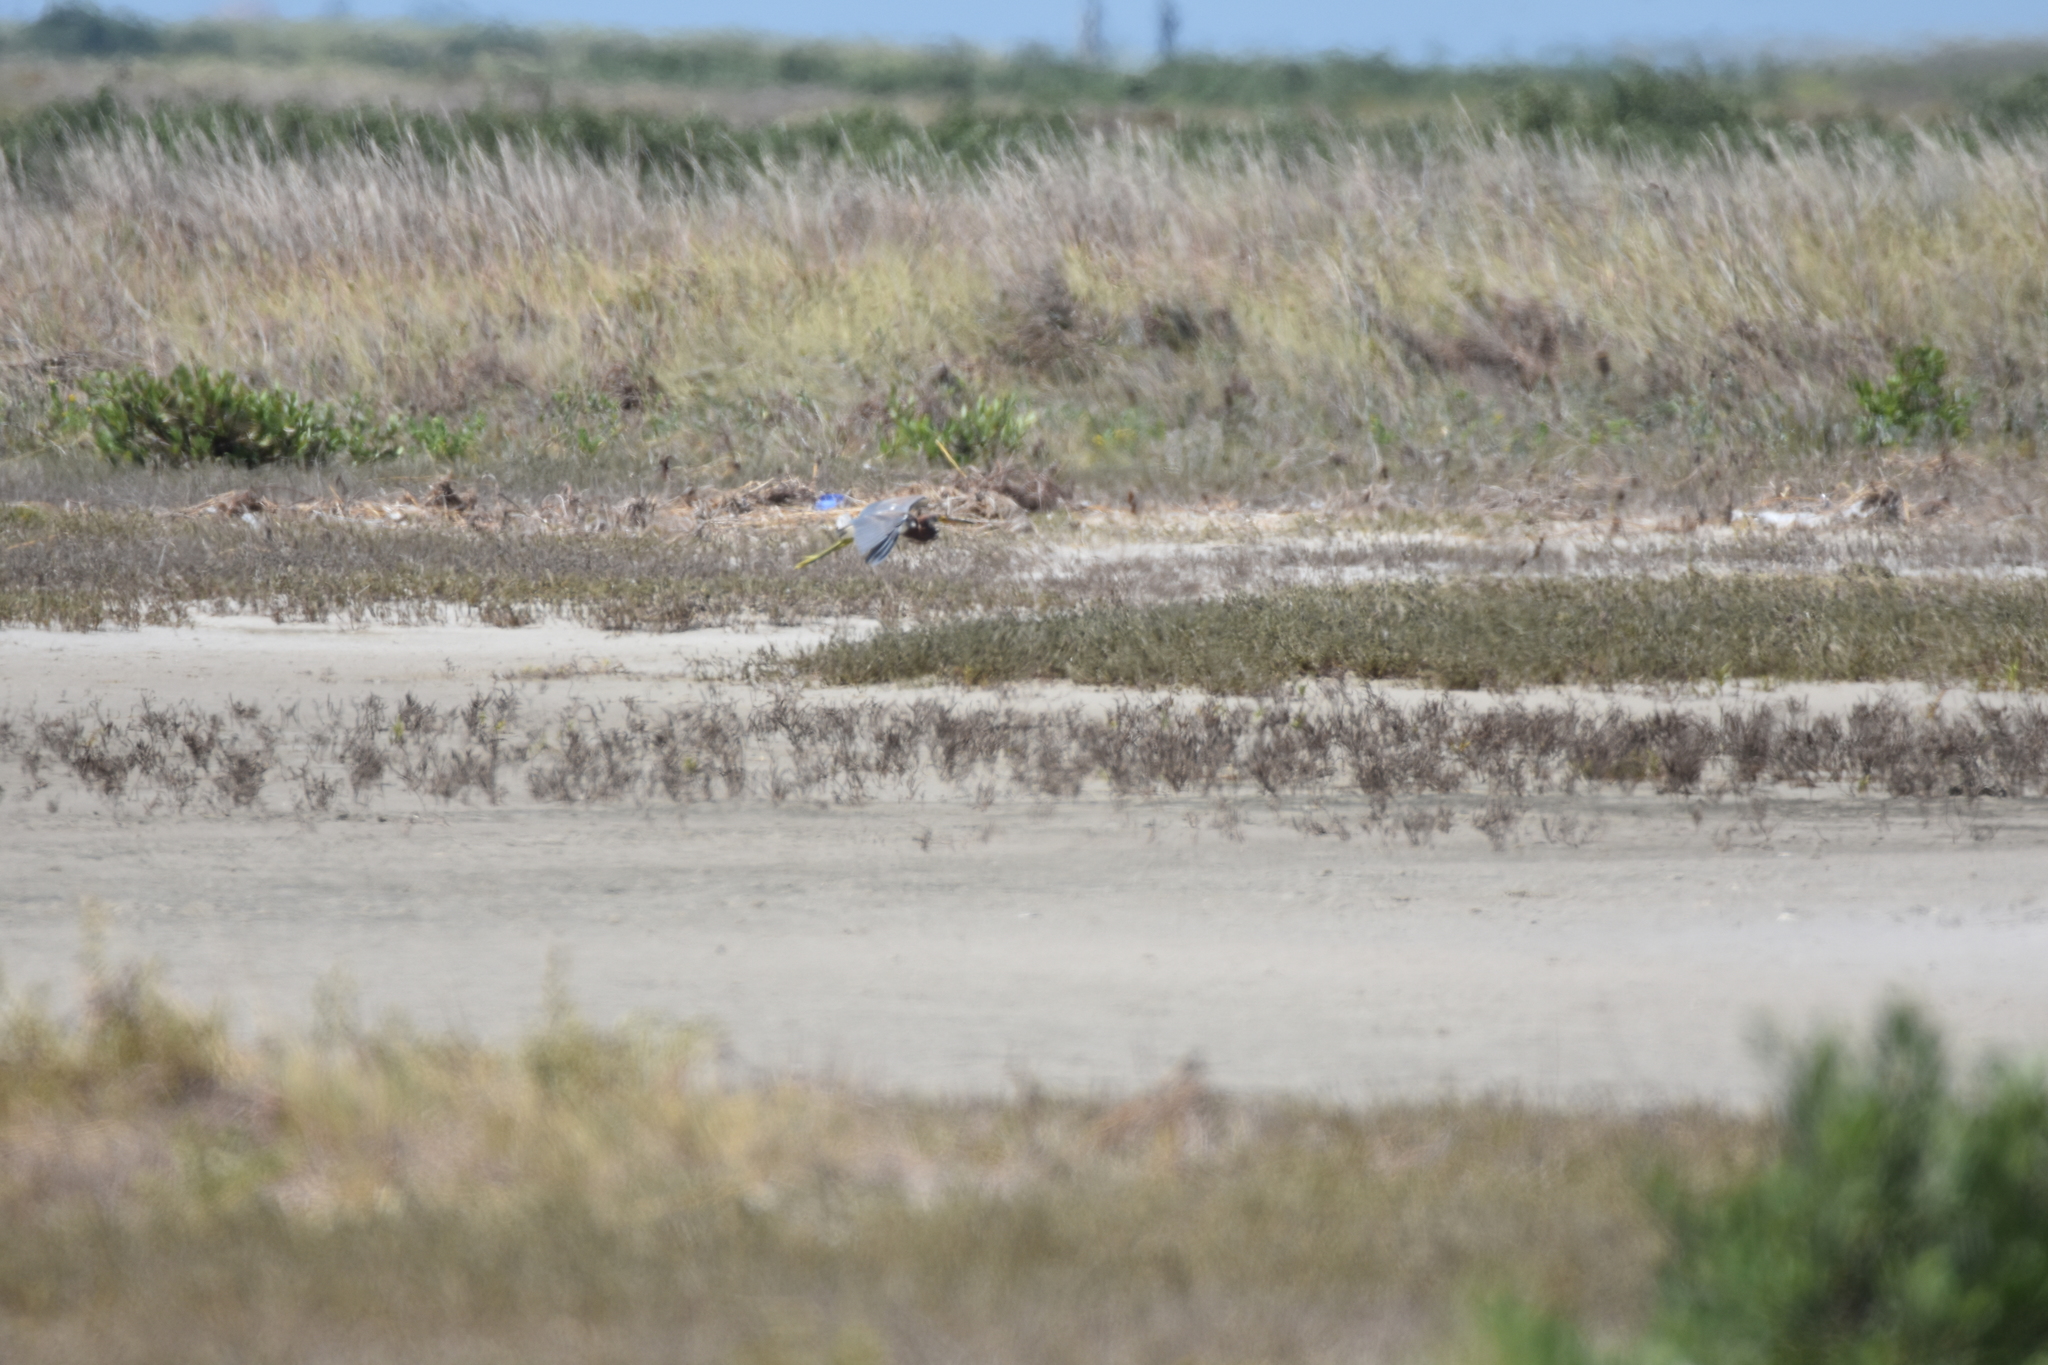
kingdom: Animalia
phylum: Chordata
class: Aves
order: Pelecaniformes
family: Ardeidae
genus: Egretta
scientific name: Egretta tricolor
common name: Tricolored heron
